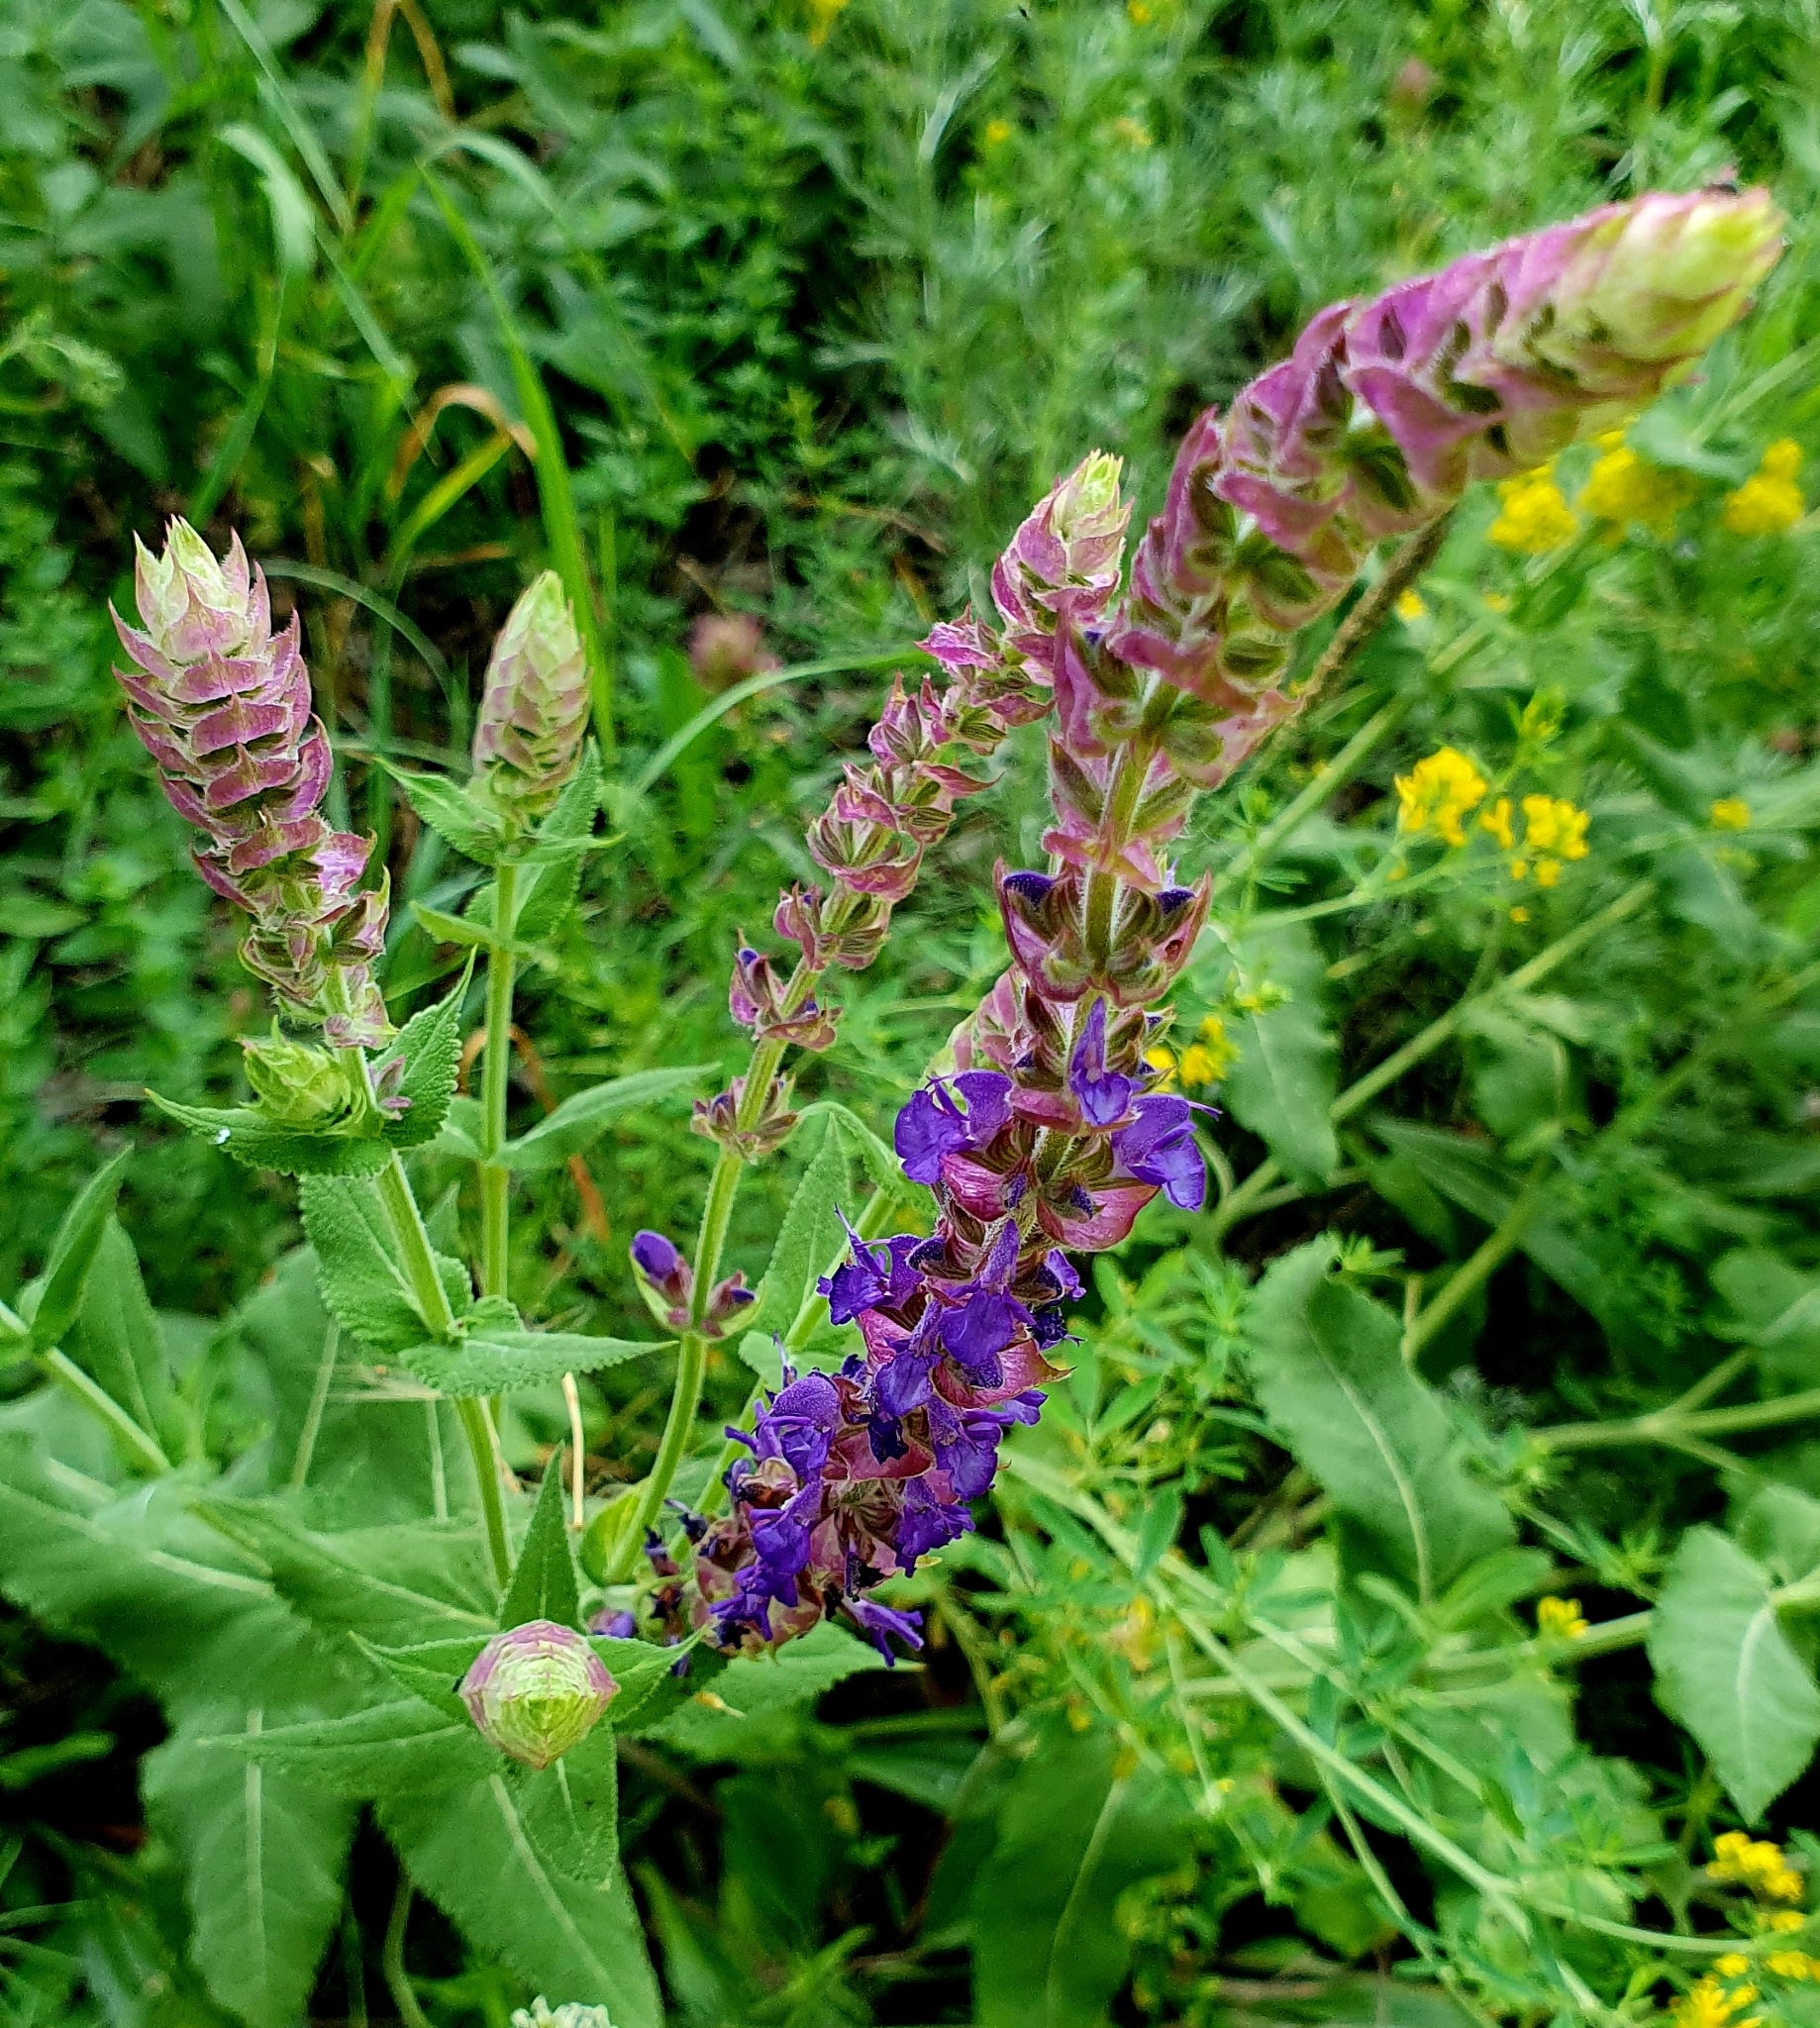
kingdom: Plantae
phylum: Tracheophyta
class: Magnoliopsida
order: Lamiales
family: Lamiaceae
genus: Salvia
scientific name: Salvia nemorosa
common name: Balkan clary
